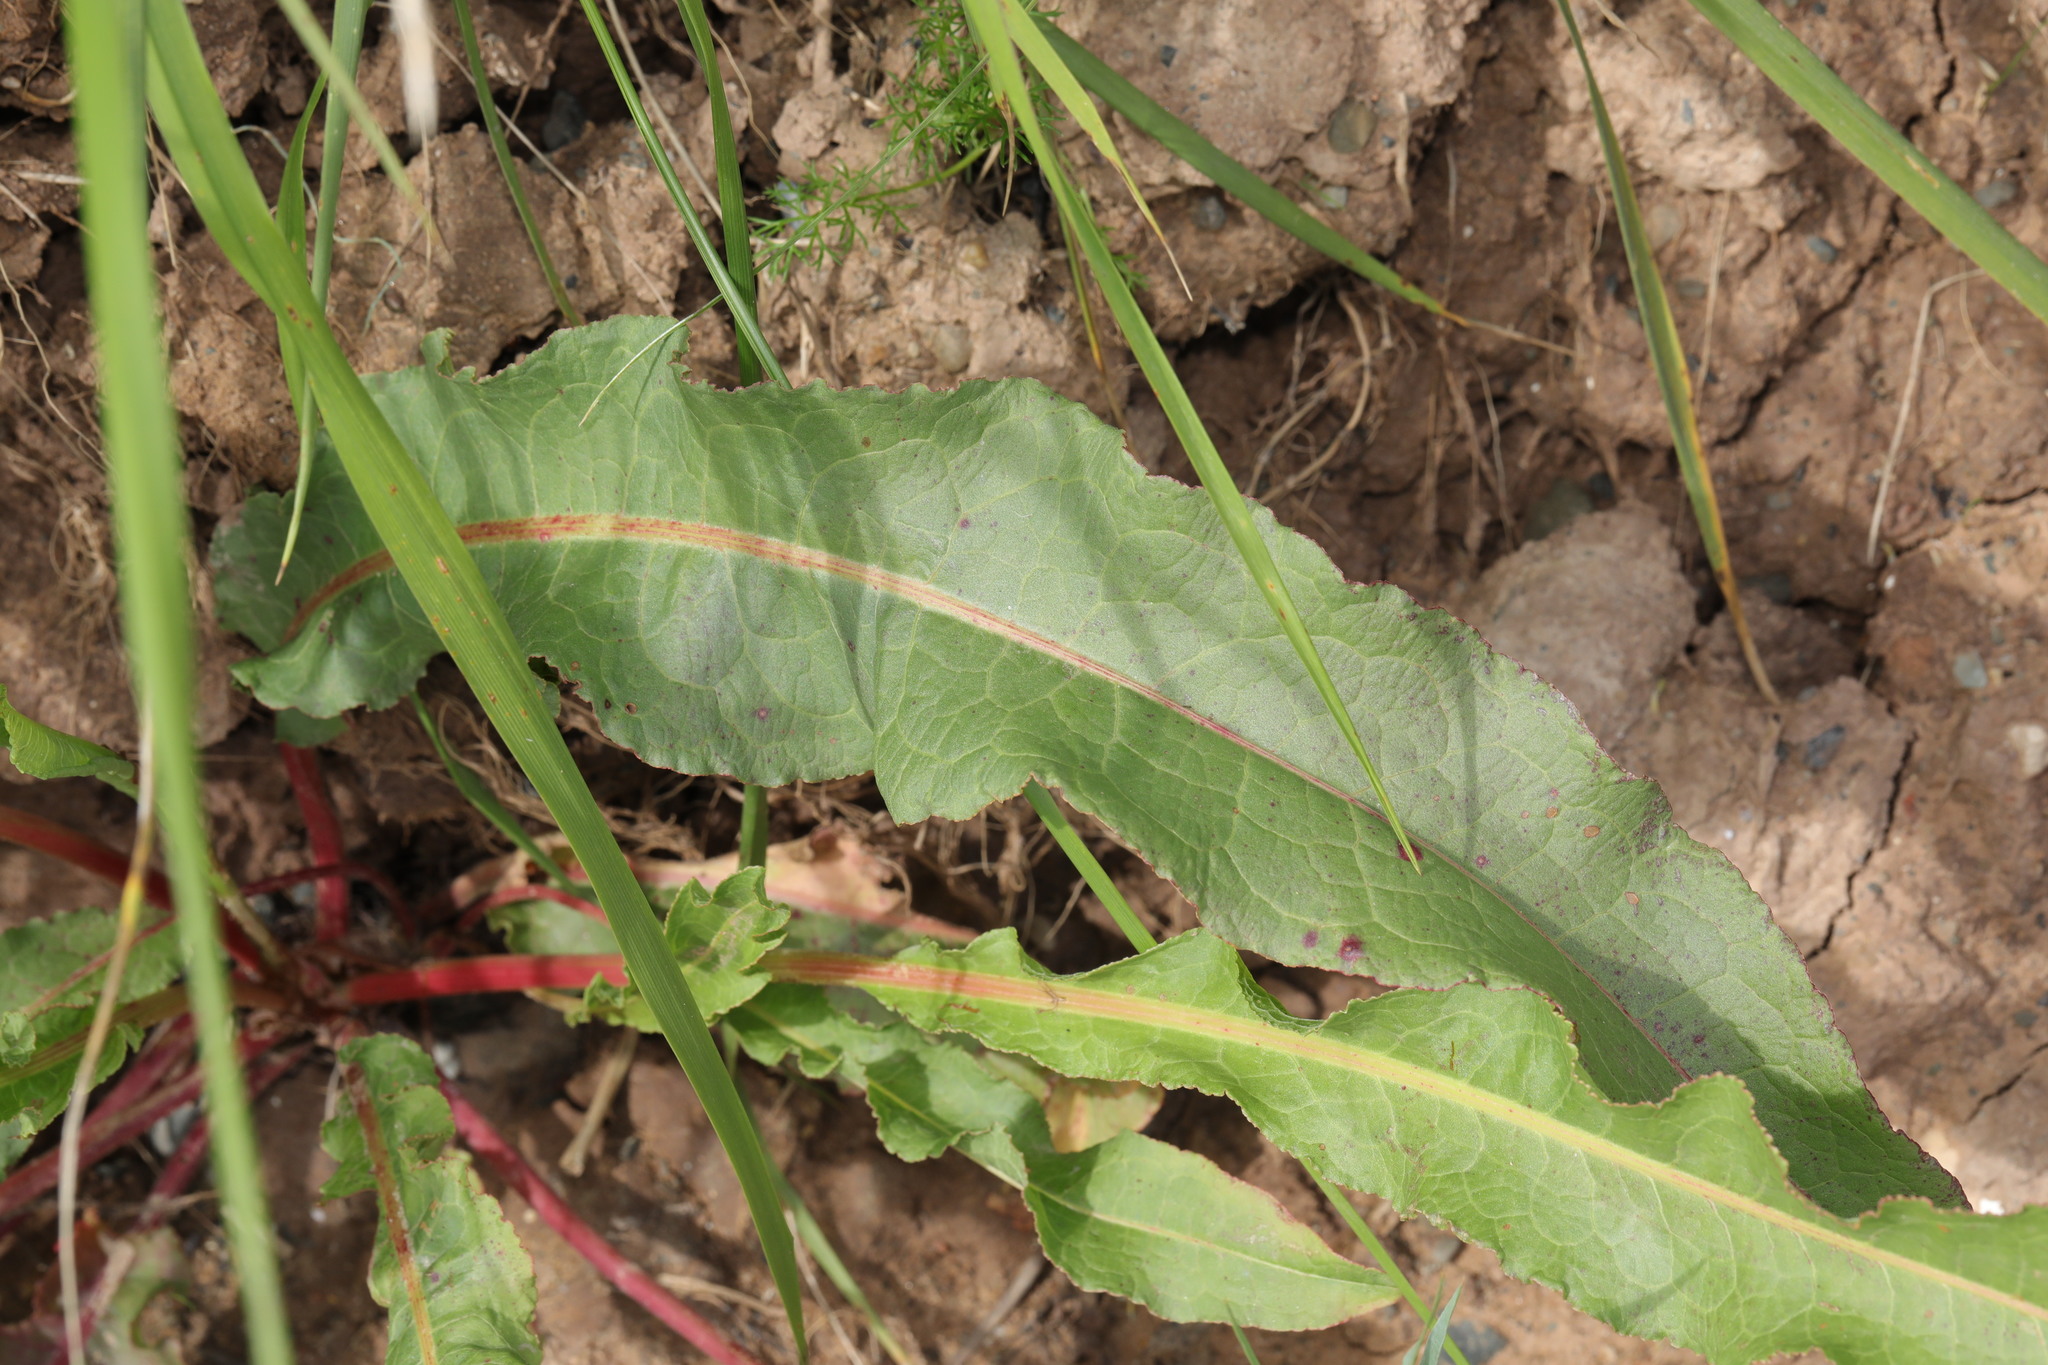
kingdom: Plantae
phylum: Tracheophyta
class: Magnoliopsida
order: Caryophyllales
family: Polygonaceae
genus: Rumex
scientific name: Rumex crispus
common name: Curled dock
